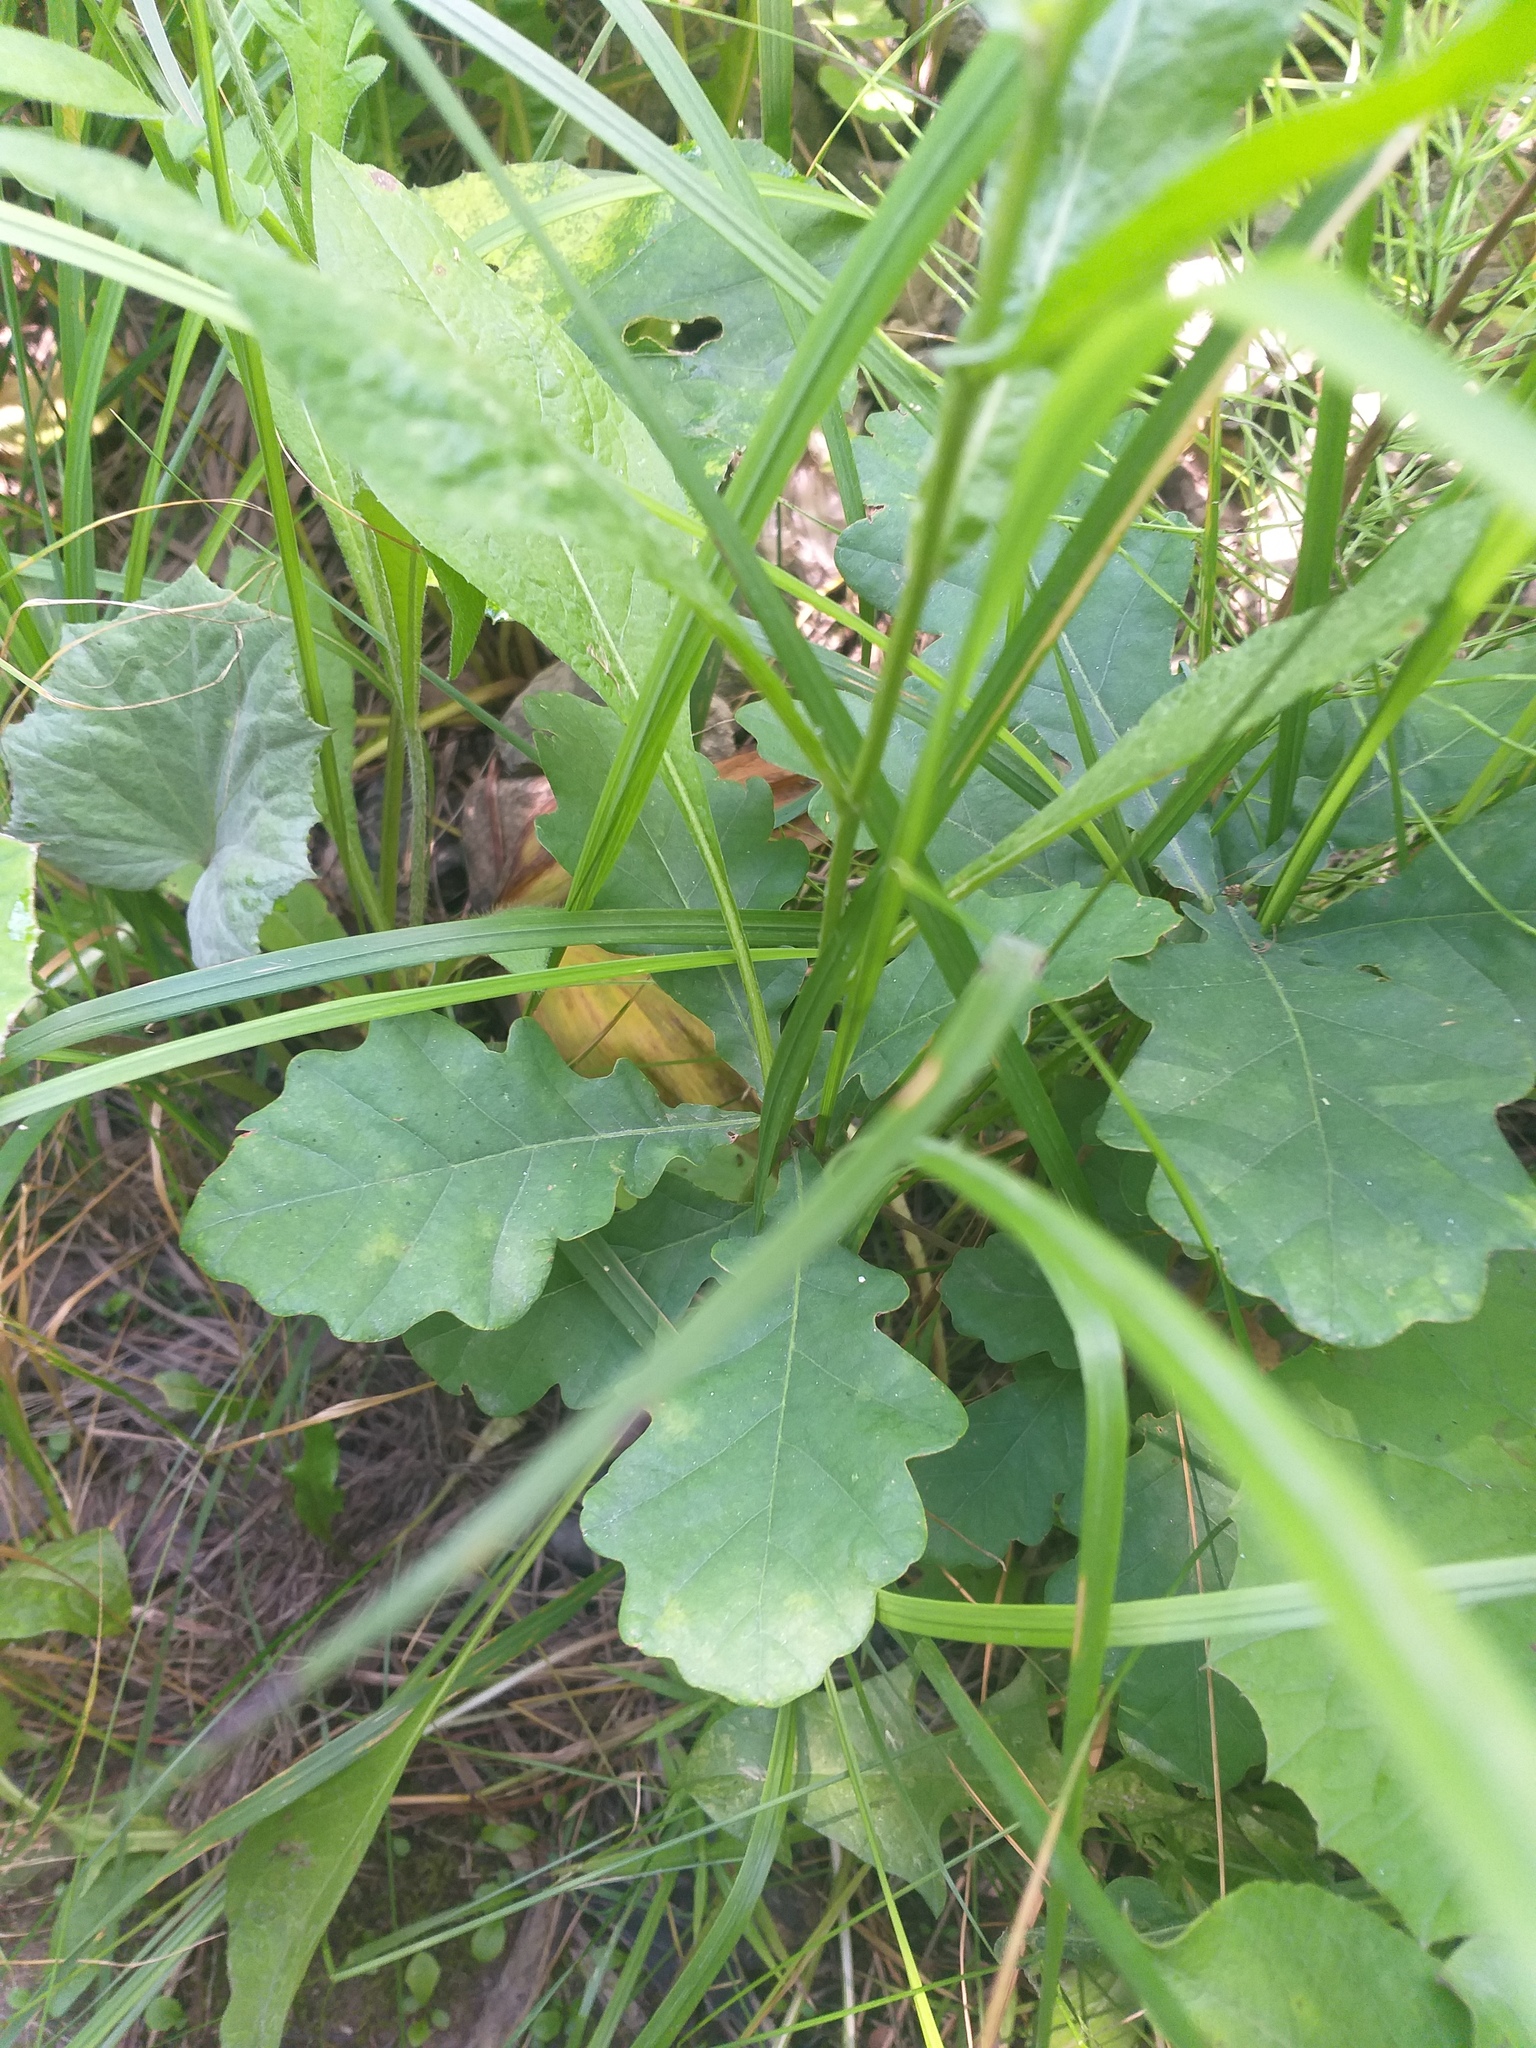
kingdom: Plantae
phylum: Tracheophyta
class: Magnoliopsida
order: Fagales
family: Fagaceae
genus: Quercus
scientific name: Quercus robur
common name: Pedunculate oak
